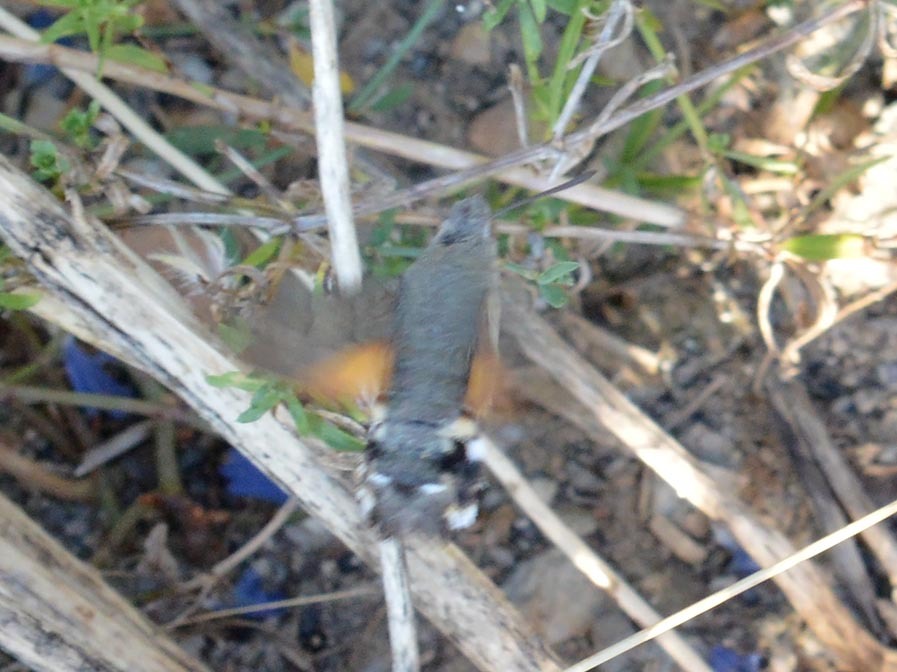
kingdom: Animalia
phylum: Arthropoda
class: Insecta
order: Lepidoptera
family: Sphingidae
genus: Macroglossum
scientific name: Macroglossum stellatarum
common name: Humming-bird hawk-moth
